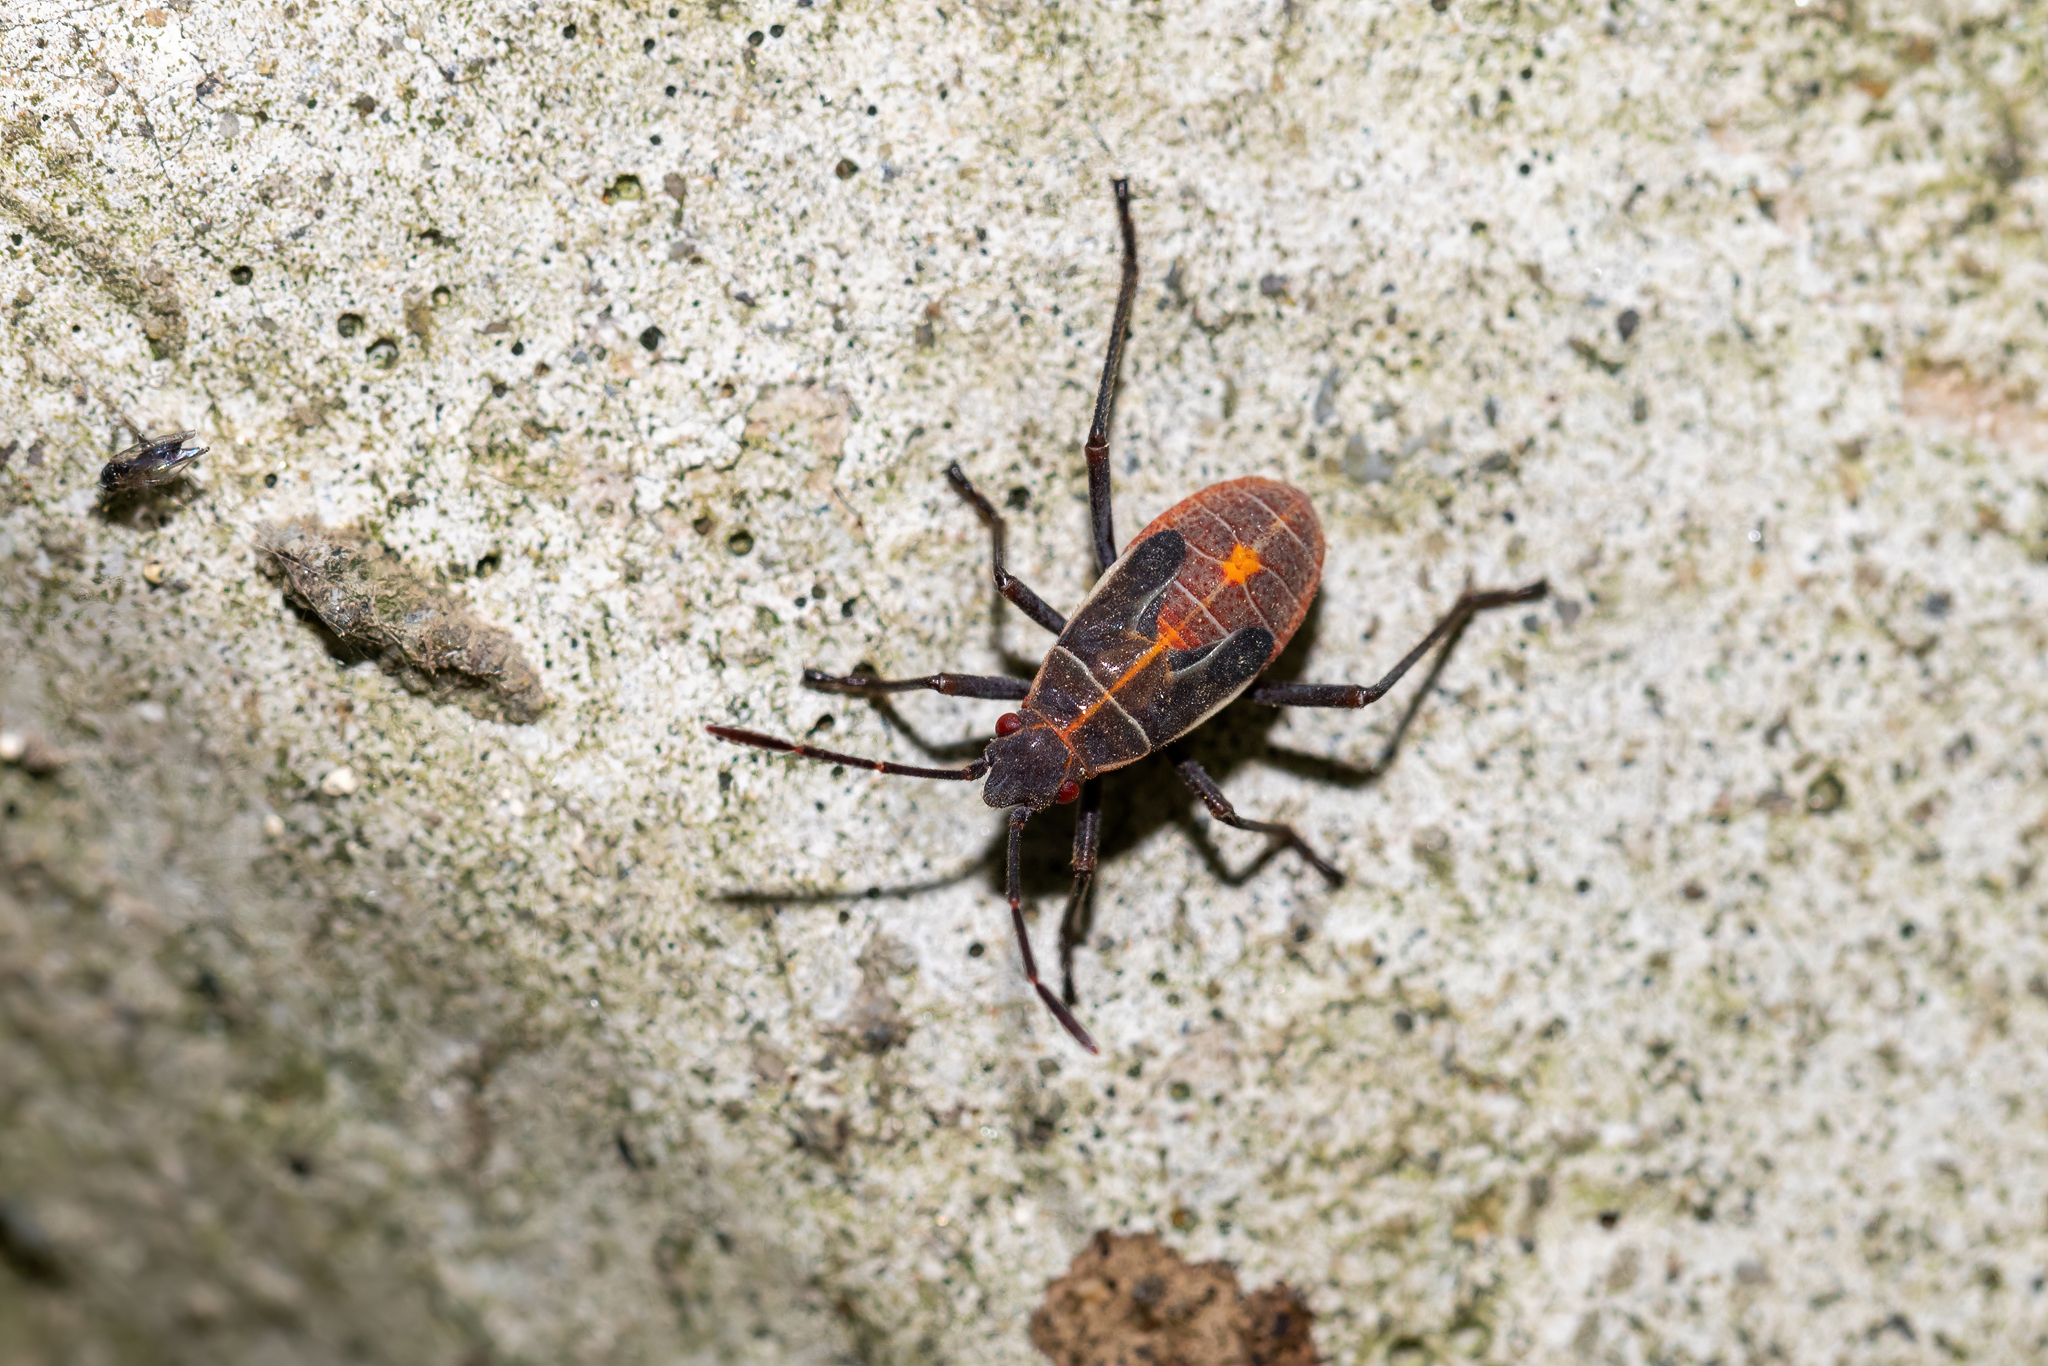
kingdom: Animalia
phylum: Arthropoda
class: Insecta
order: Hemiptera
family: Rhopalidae
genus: Boisea
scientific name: Boisea rubrolineata
